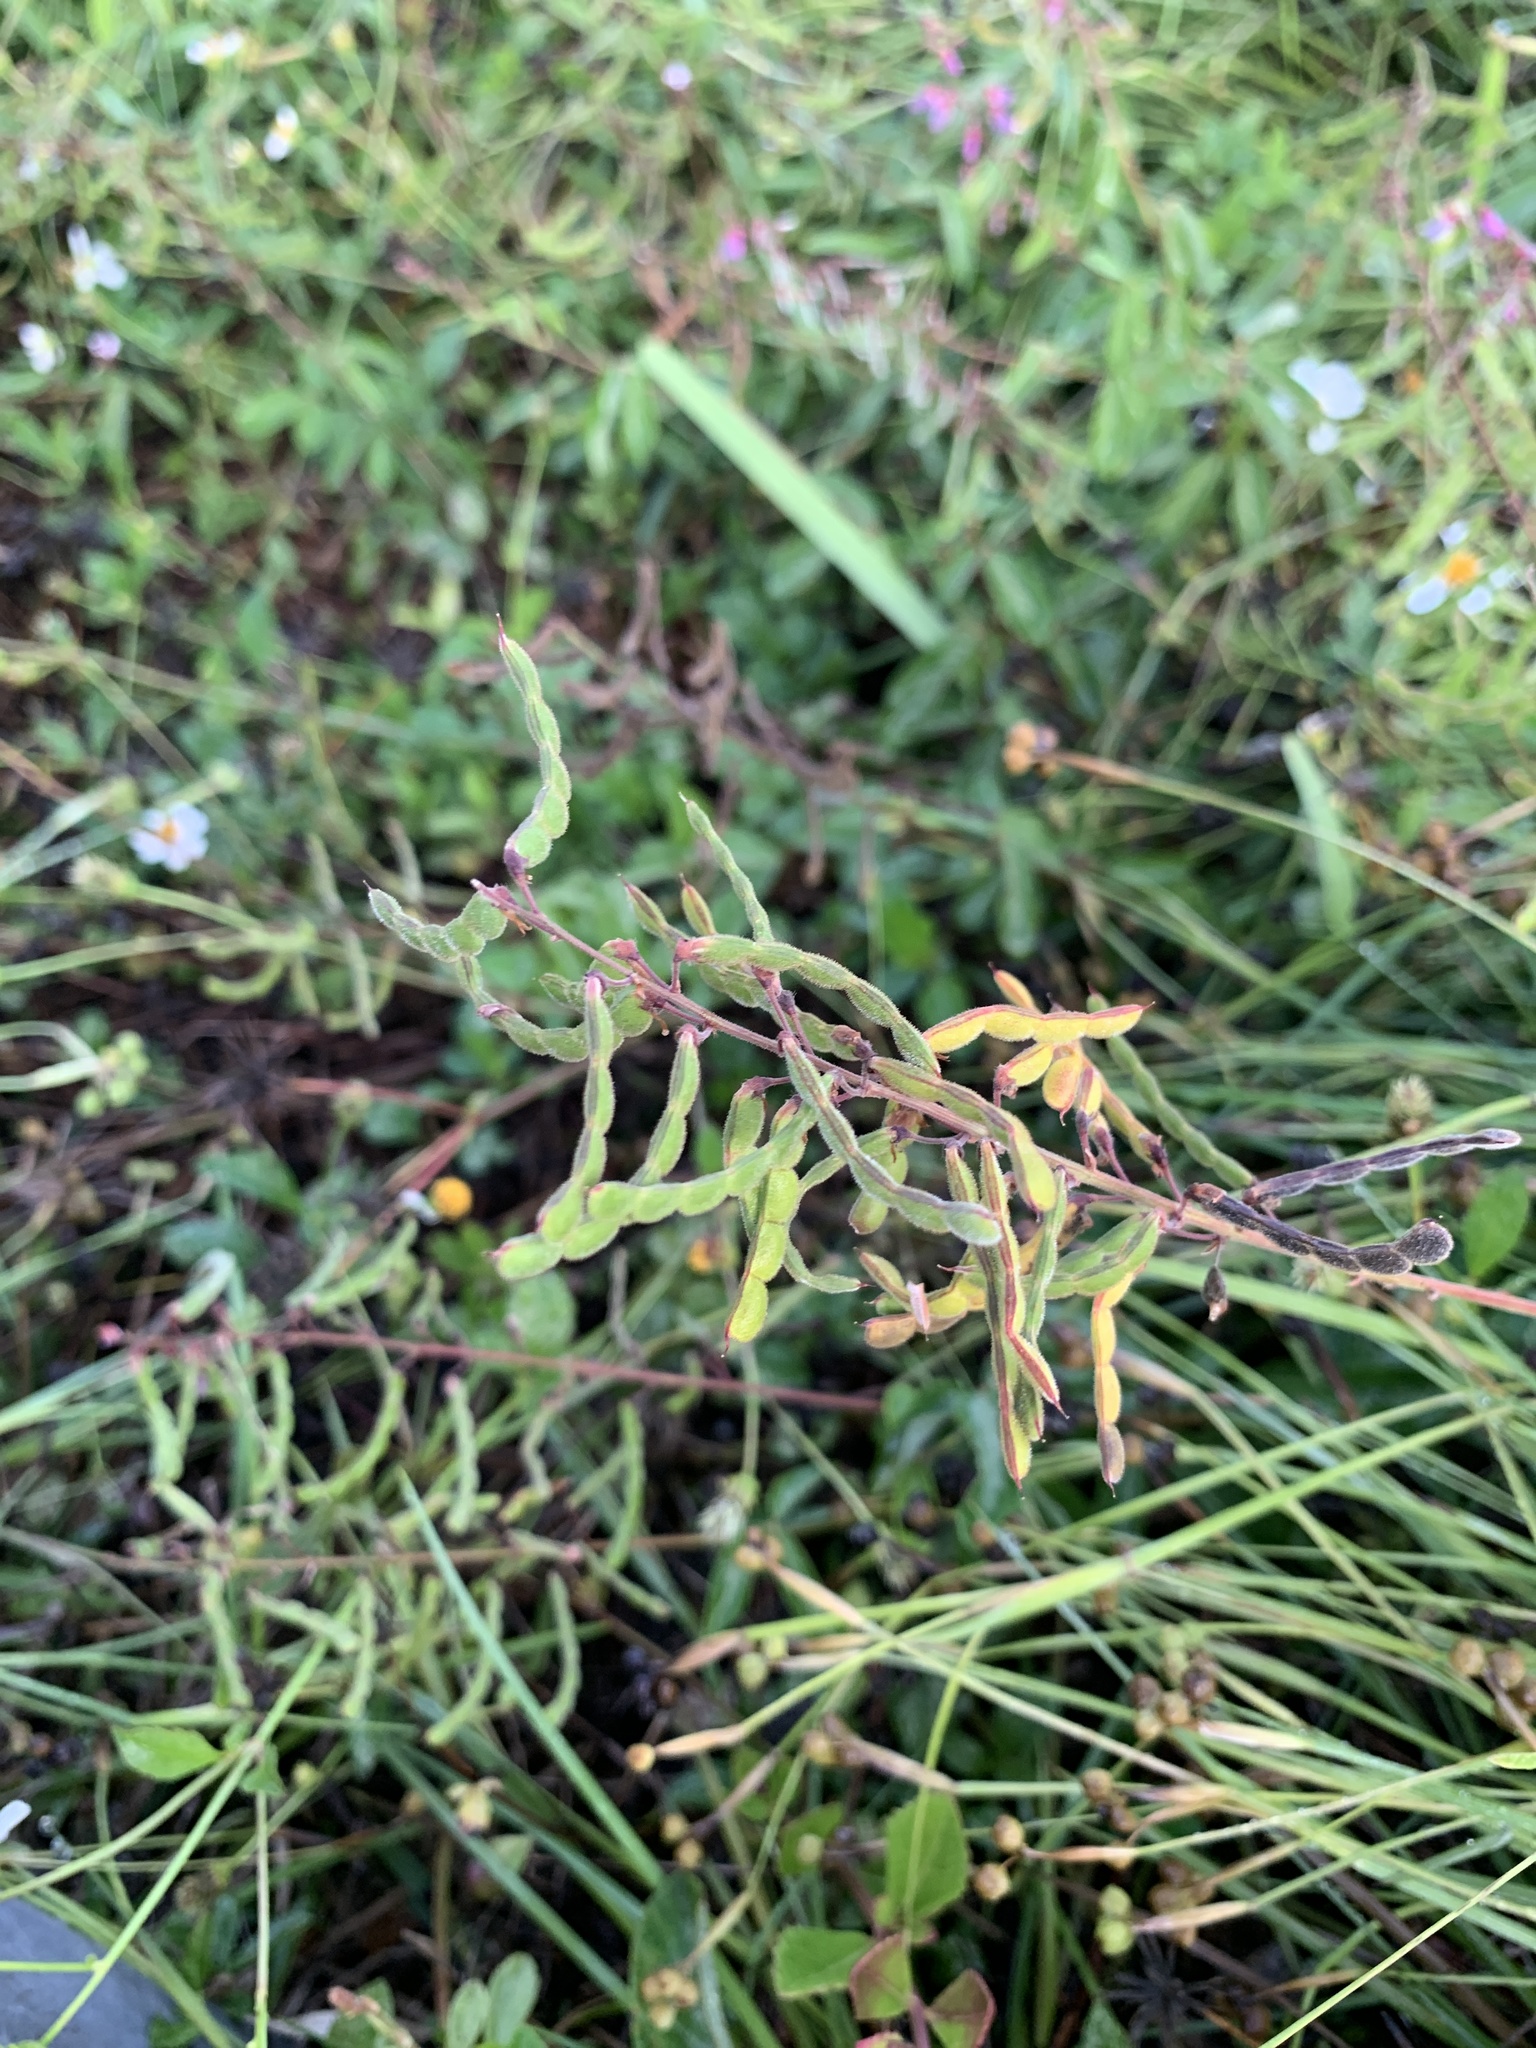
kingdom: Plantae
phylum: Tracheophyta
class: Magnoliopsida
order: Fabales
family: Fabaceae
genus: Desmodium
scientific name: Desmodium incanum
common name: Tickclover
